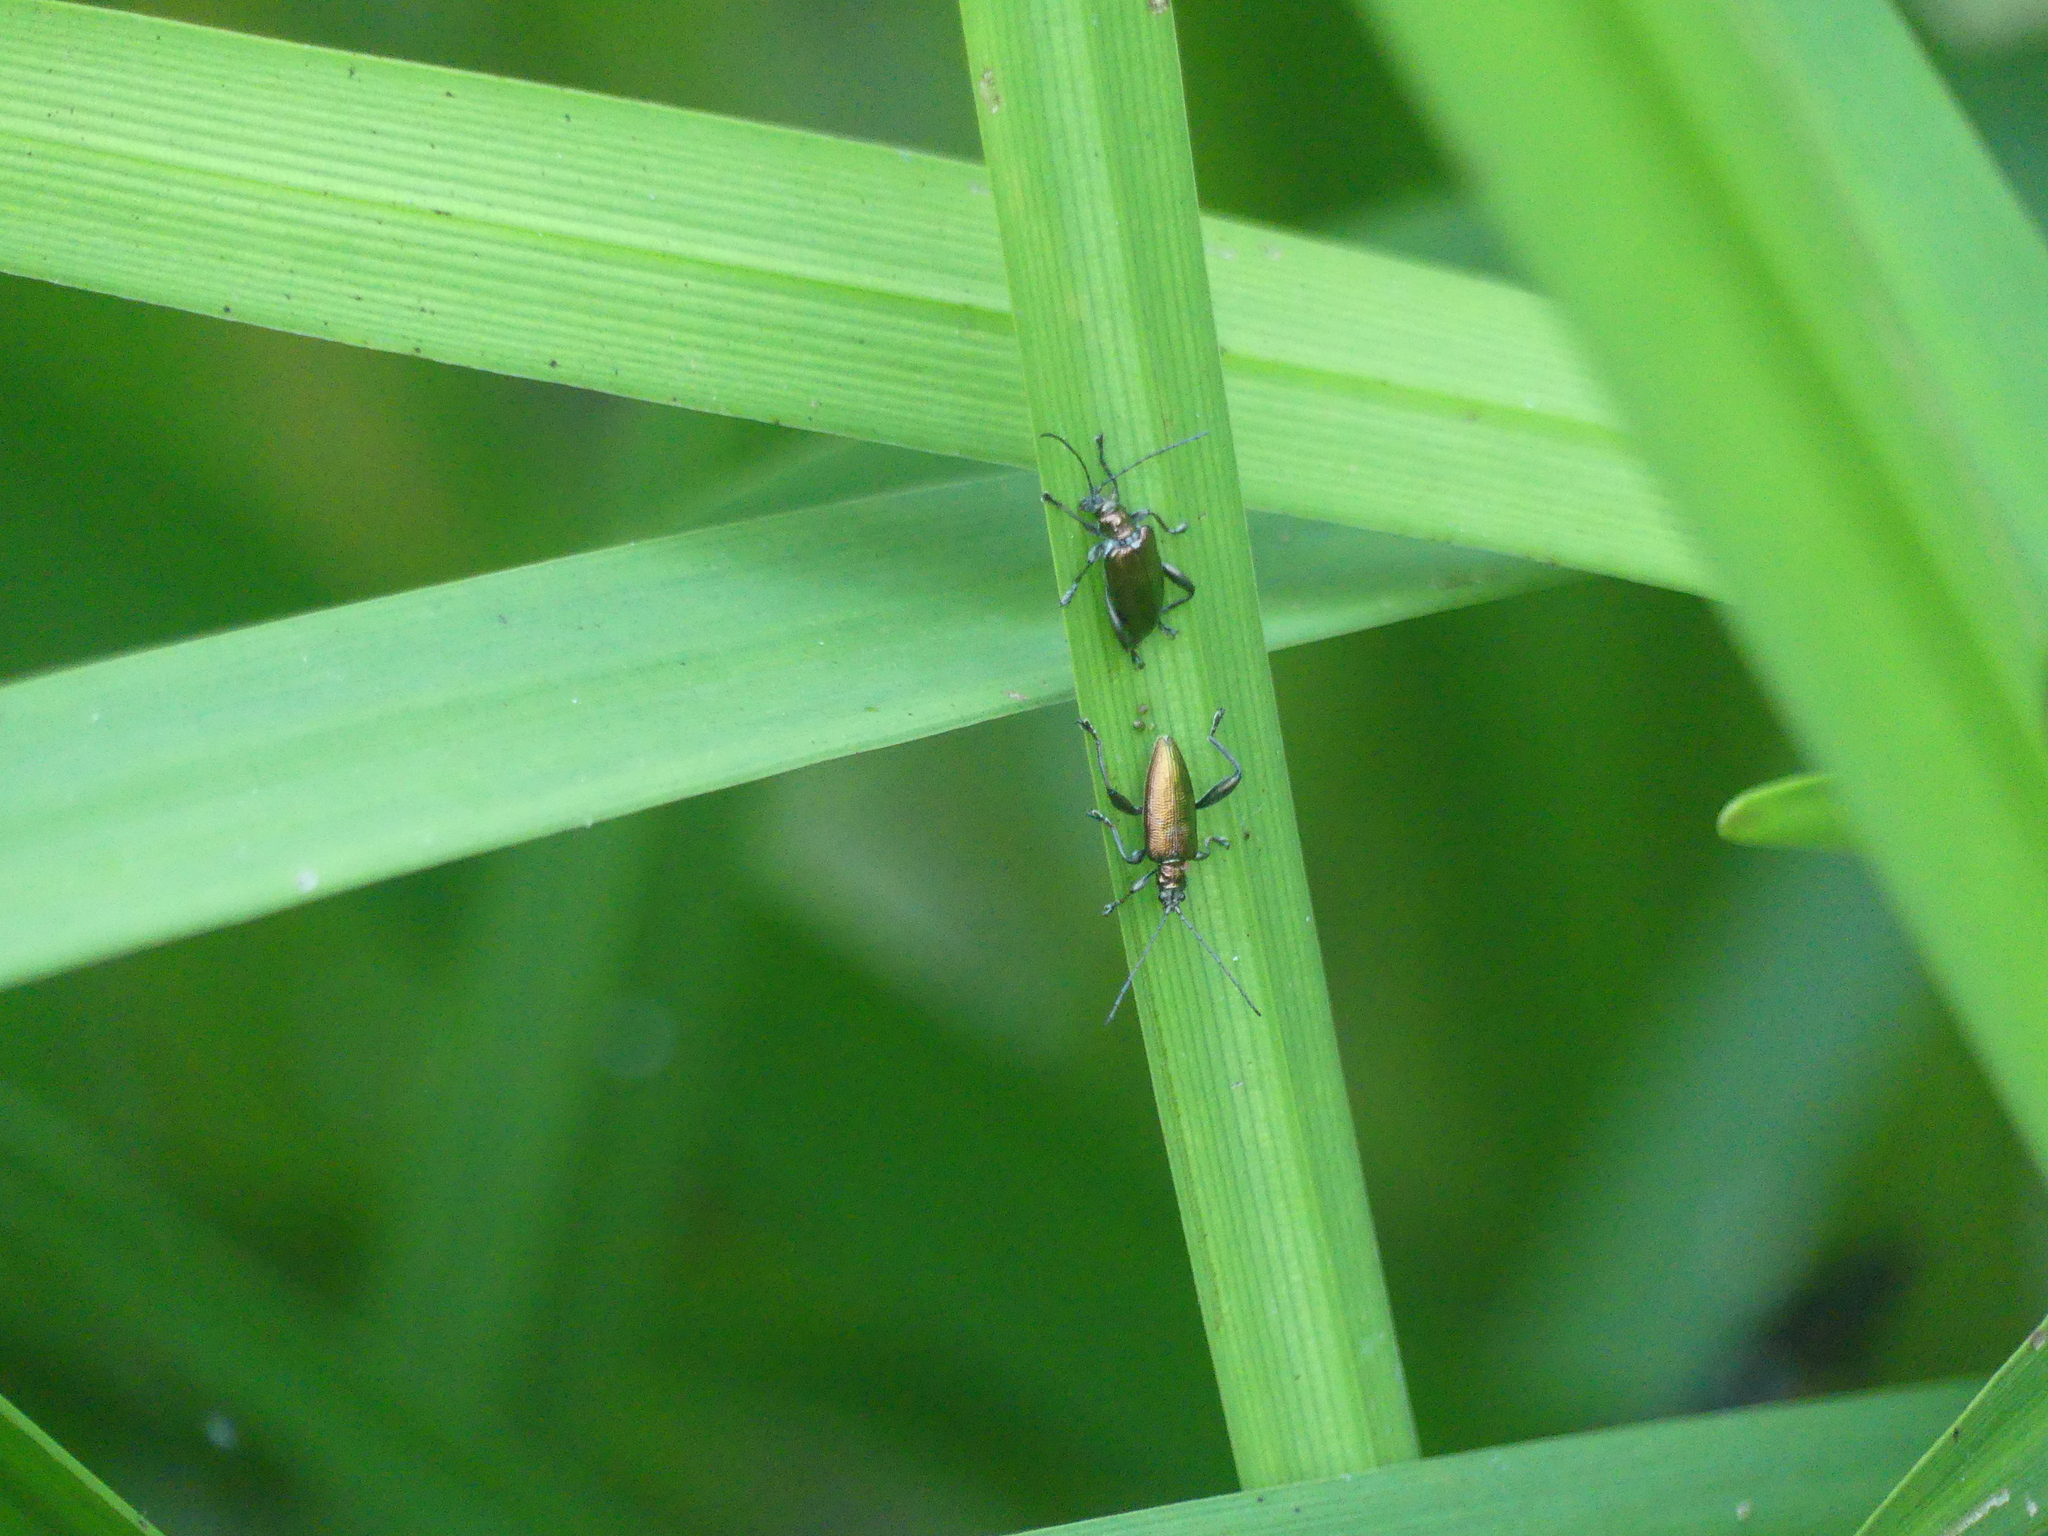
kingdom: Animalia
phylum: Arthropoda
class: Insecta
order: Coleoptera
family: Chrysomelidae
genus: Donacia
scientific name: Donacia reticulata
